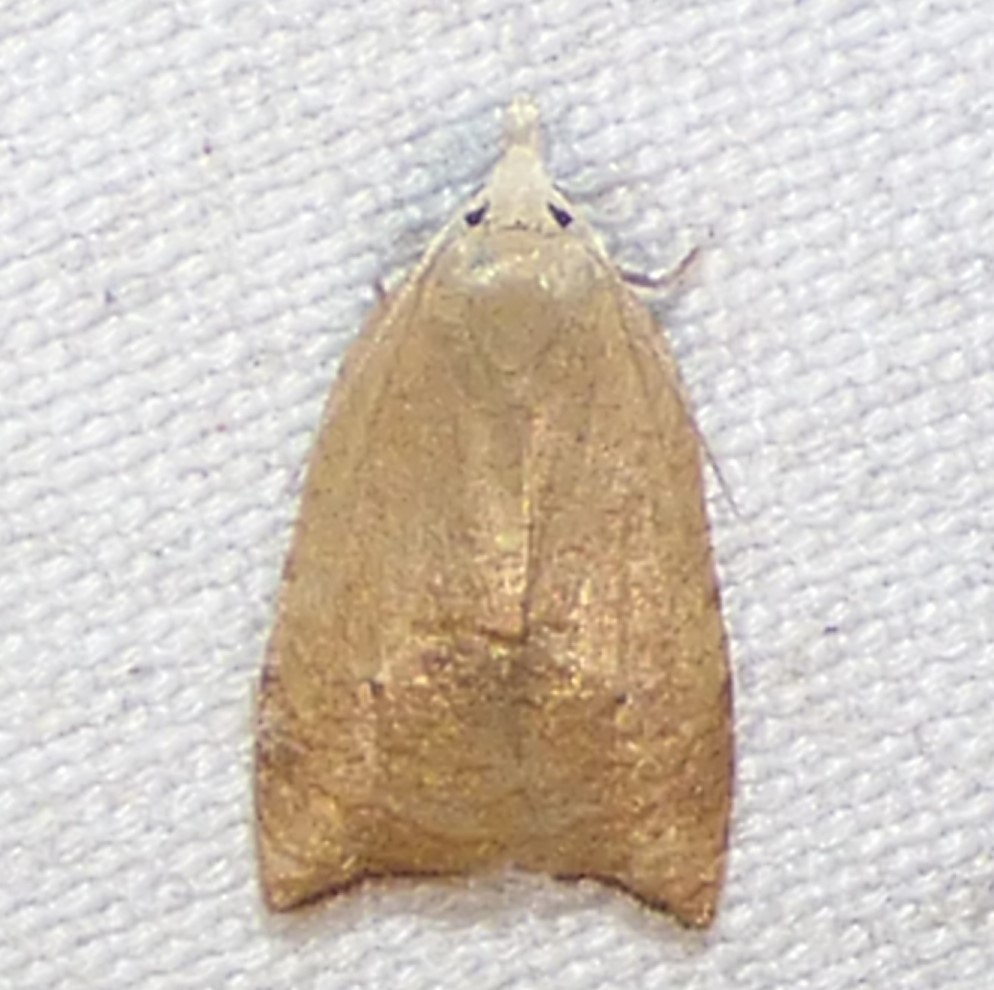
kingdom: Animalia
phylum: Arthropoda
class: Insecta
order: Lepidoptera
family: Tortricidae
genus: Coelostathma
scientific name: Coelostathma discopunctana
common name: Batman moth
